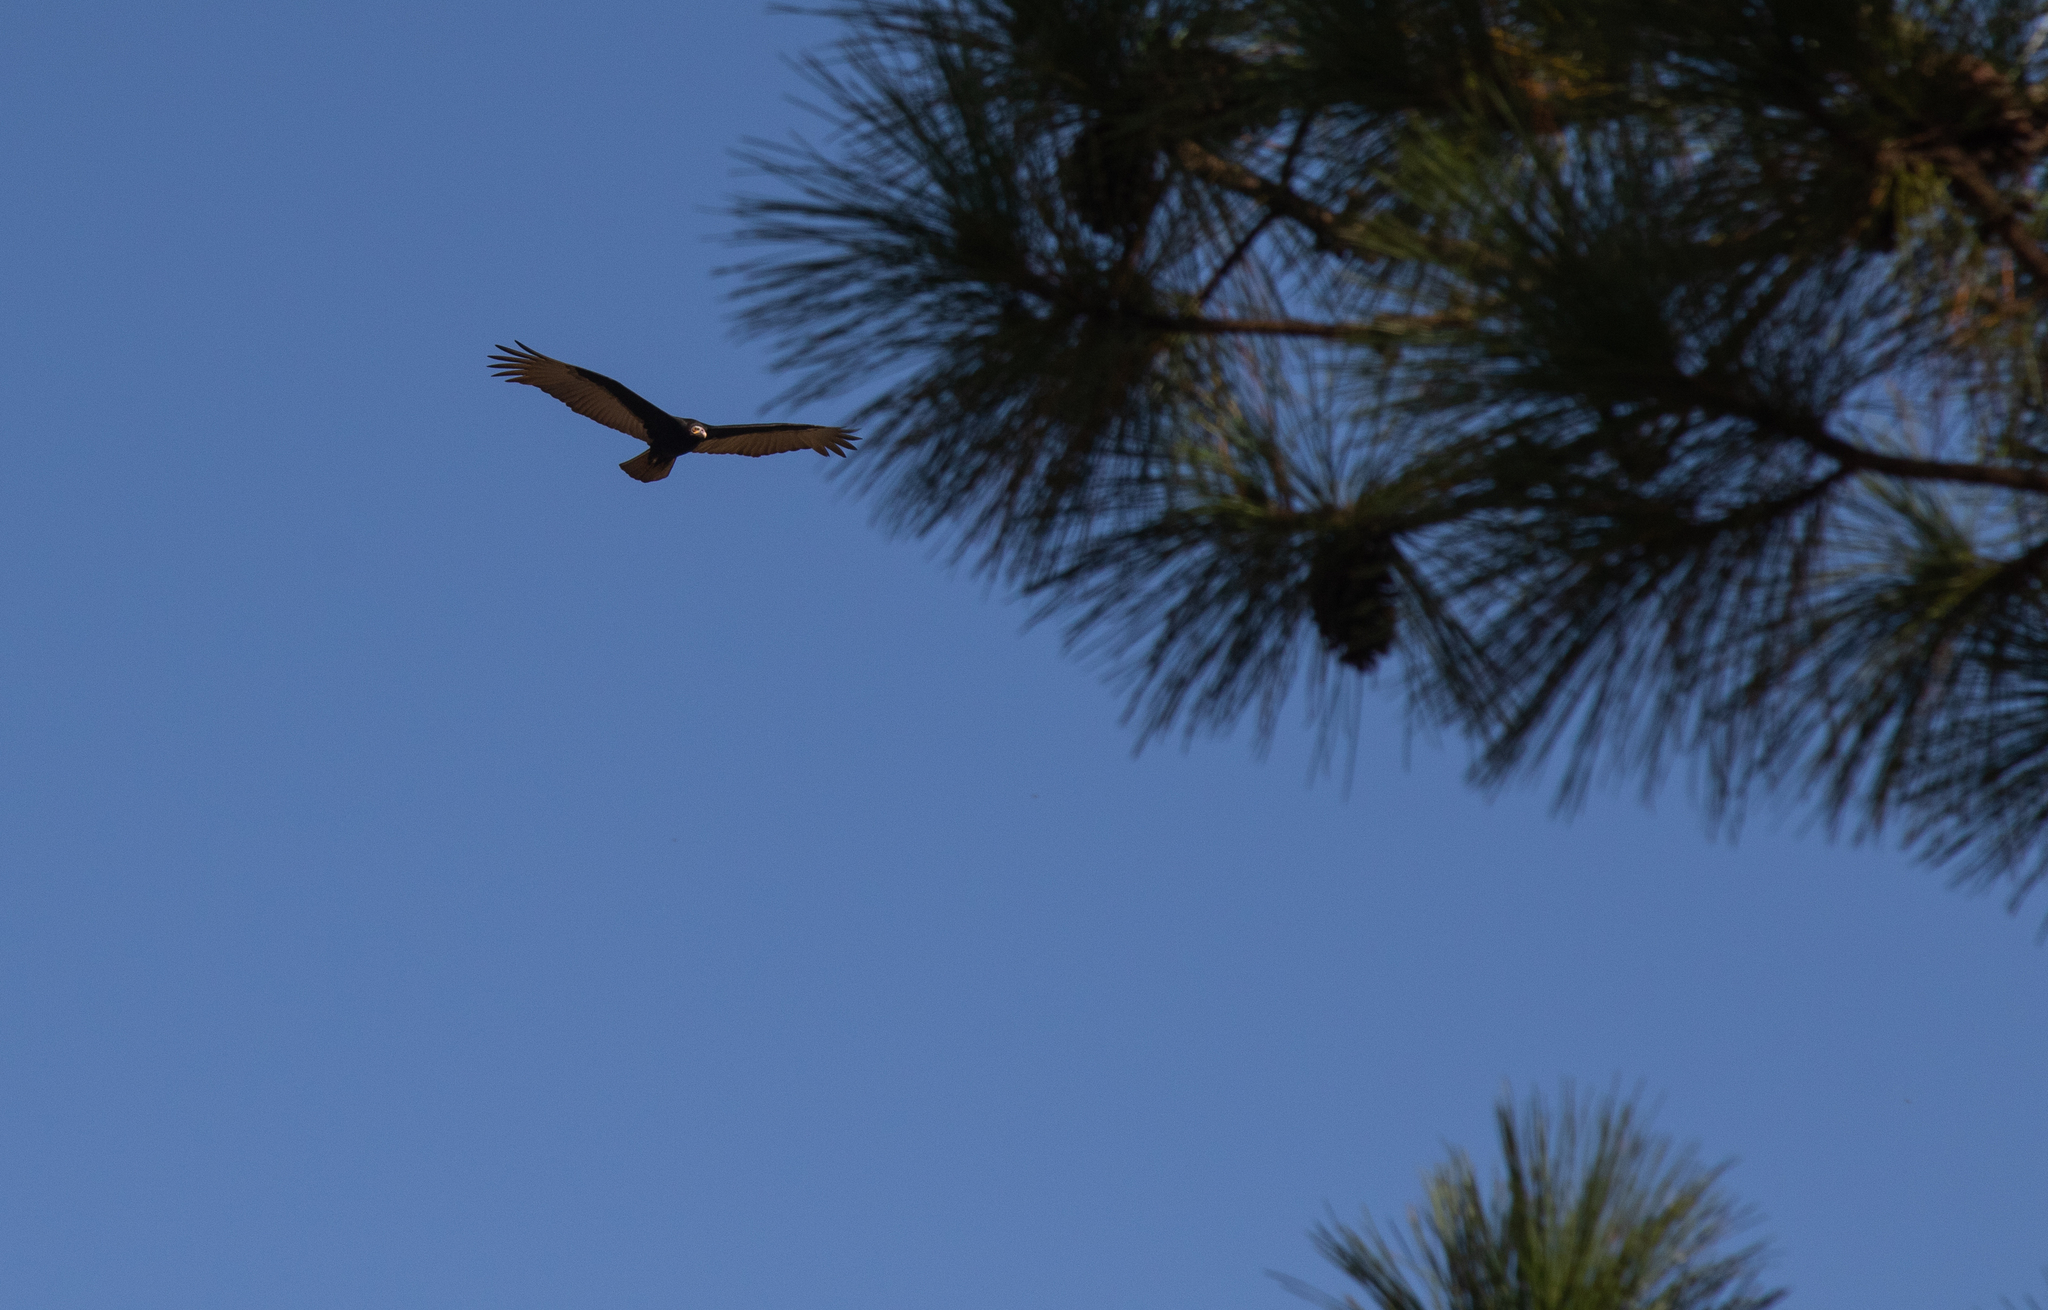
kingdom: Animalia
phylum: Chordata
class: Aves
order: Accipitriformes
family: Cathartidae
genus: Cathartes
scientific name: Cathartes burrovianus
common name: Lesser yellow-headed vulture
